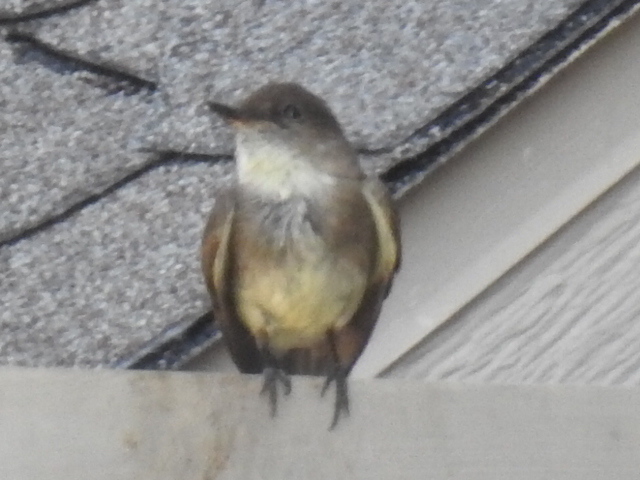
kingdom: Animalia
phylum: Chordata
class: Aves
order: Passeriformes
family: Tyrannidae
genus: Sayornis
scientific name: Sayornis phoebe
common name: Eastern phoebe
